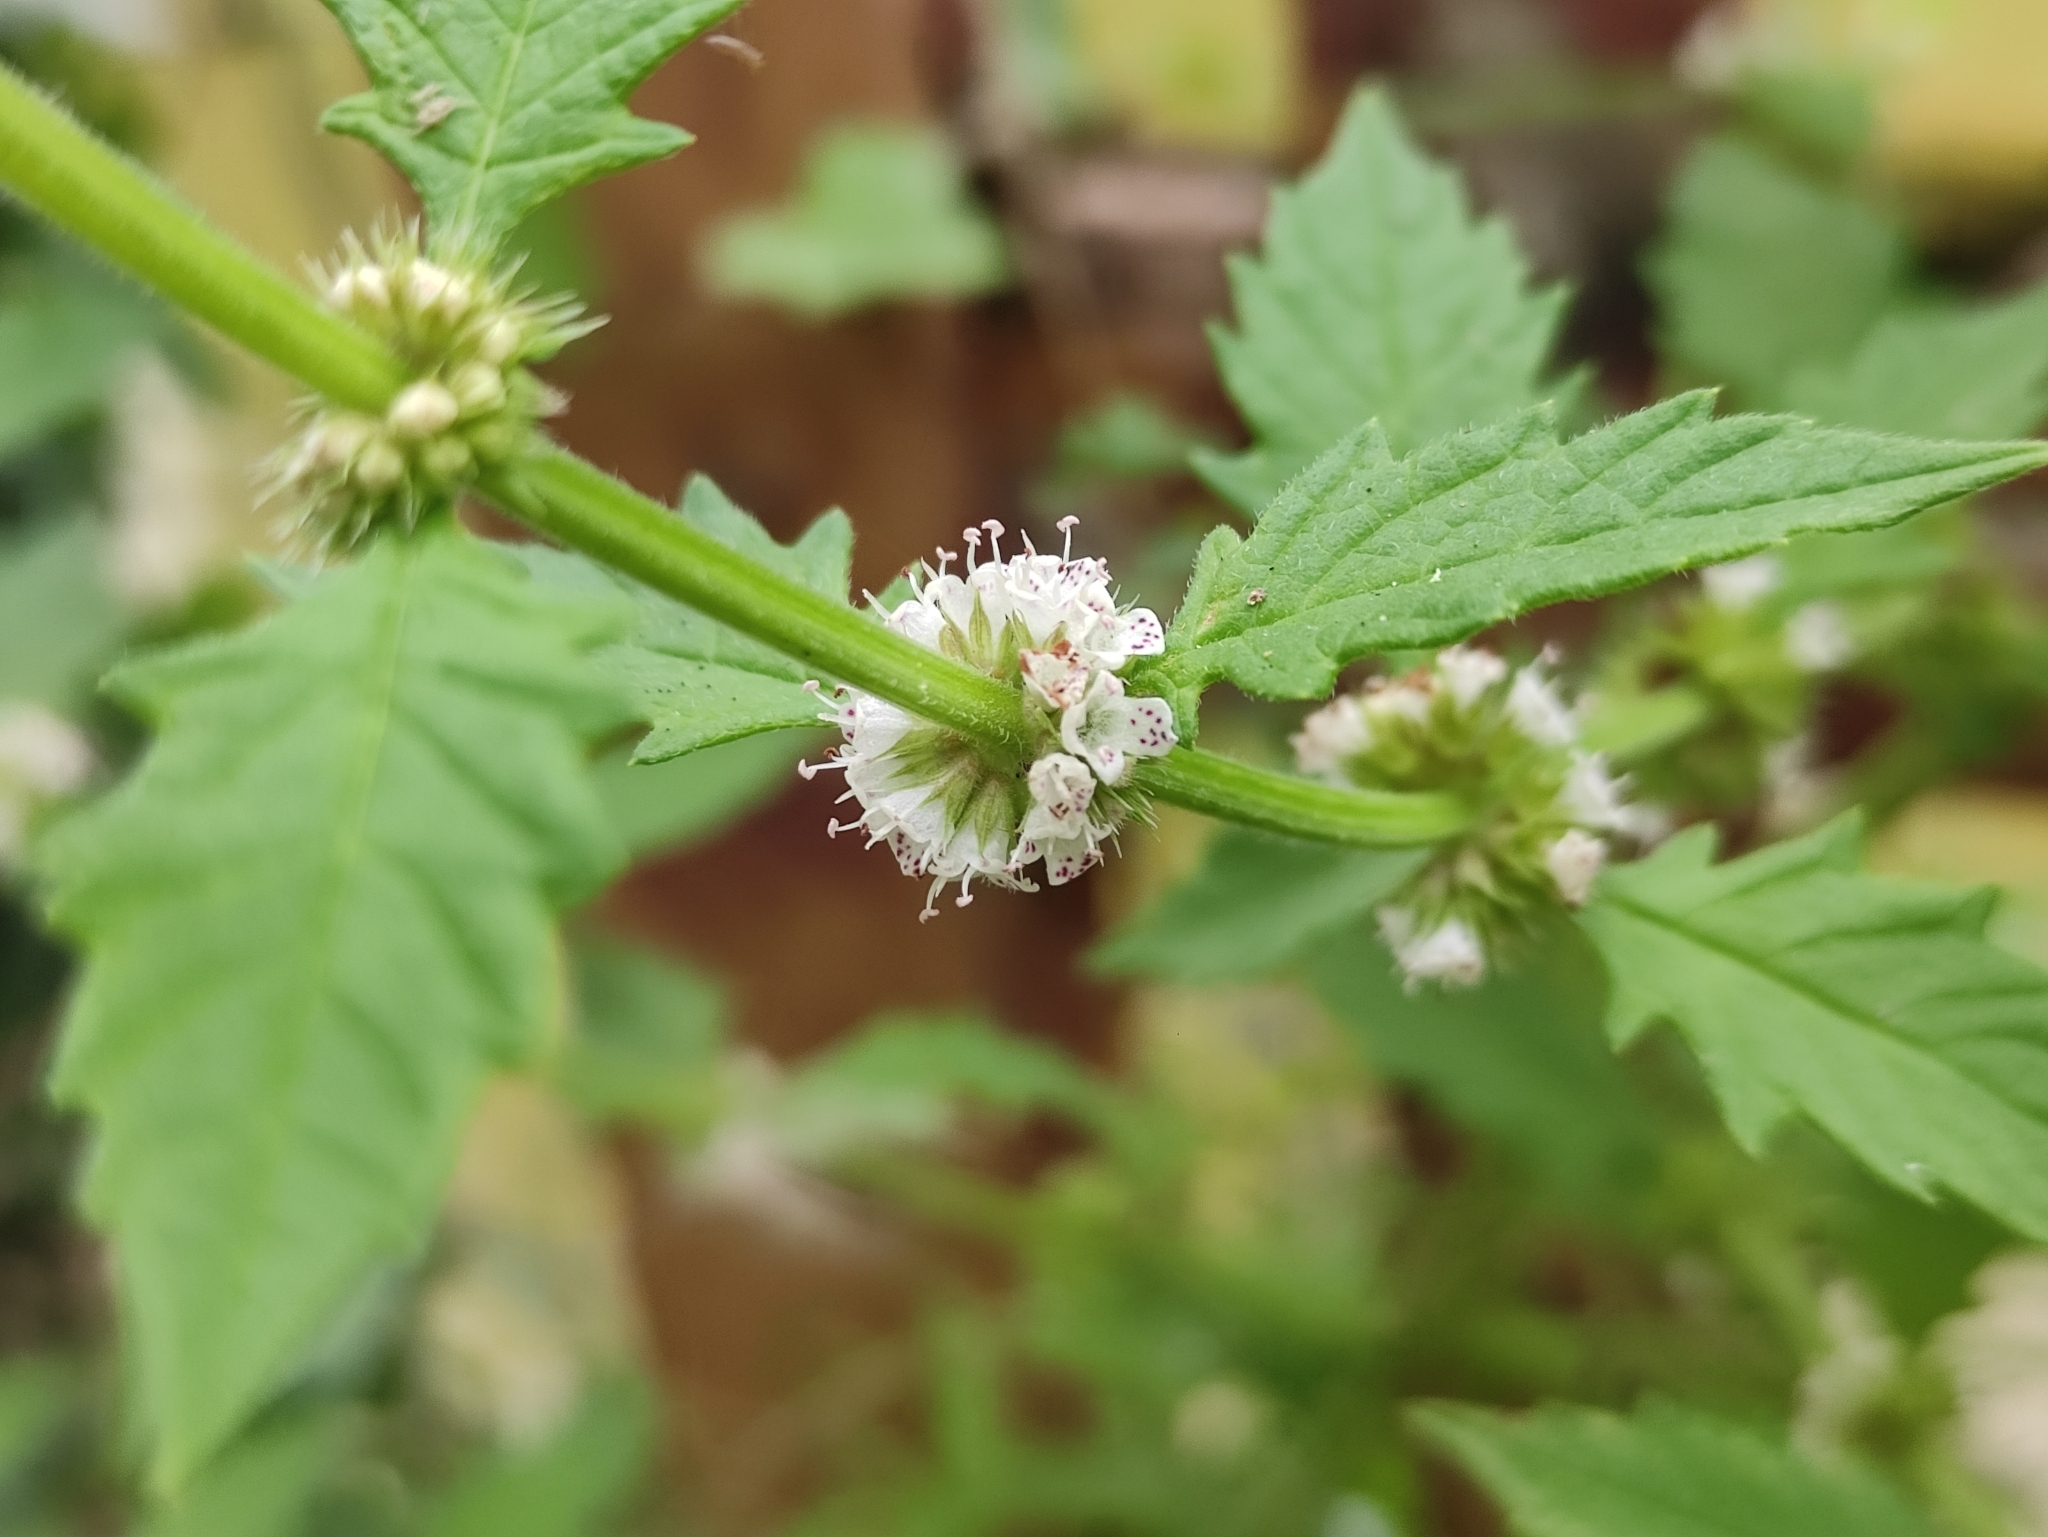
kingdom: Plantae
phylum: Tracheophyta
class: Magnoliopsida
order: Lamiales
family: Lamiaceae
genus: Lycopus
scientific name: Lycopus europaeus
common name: European bugleweed
